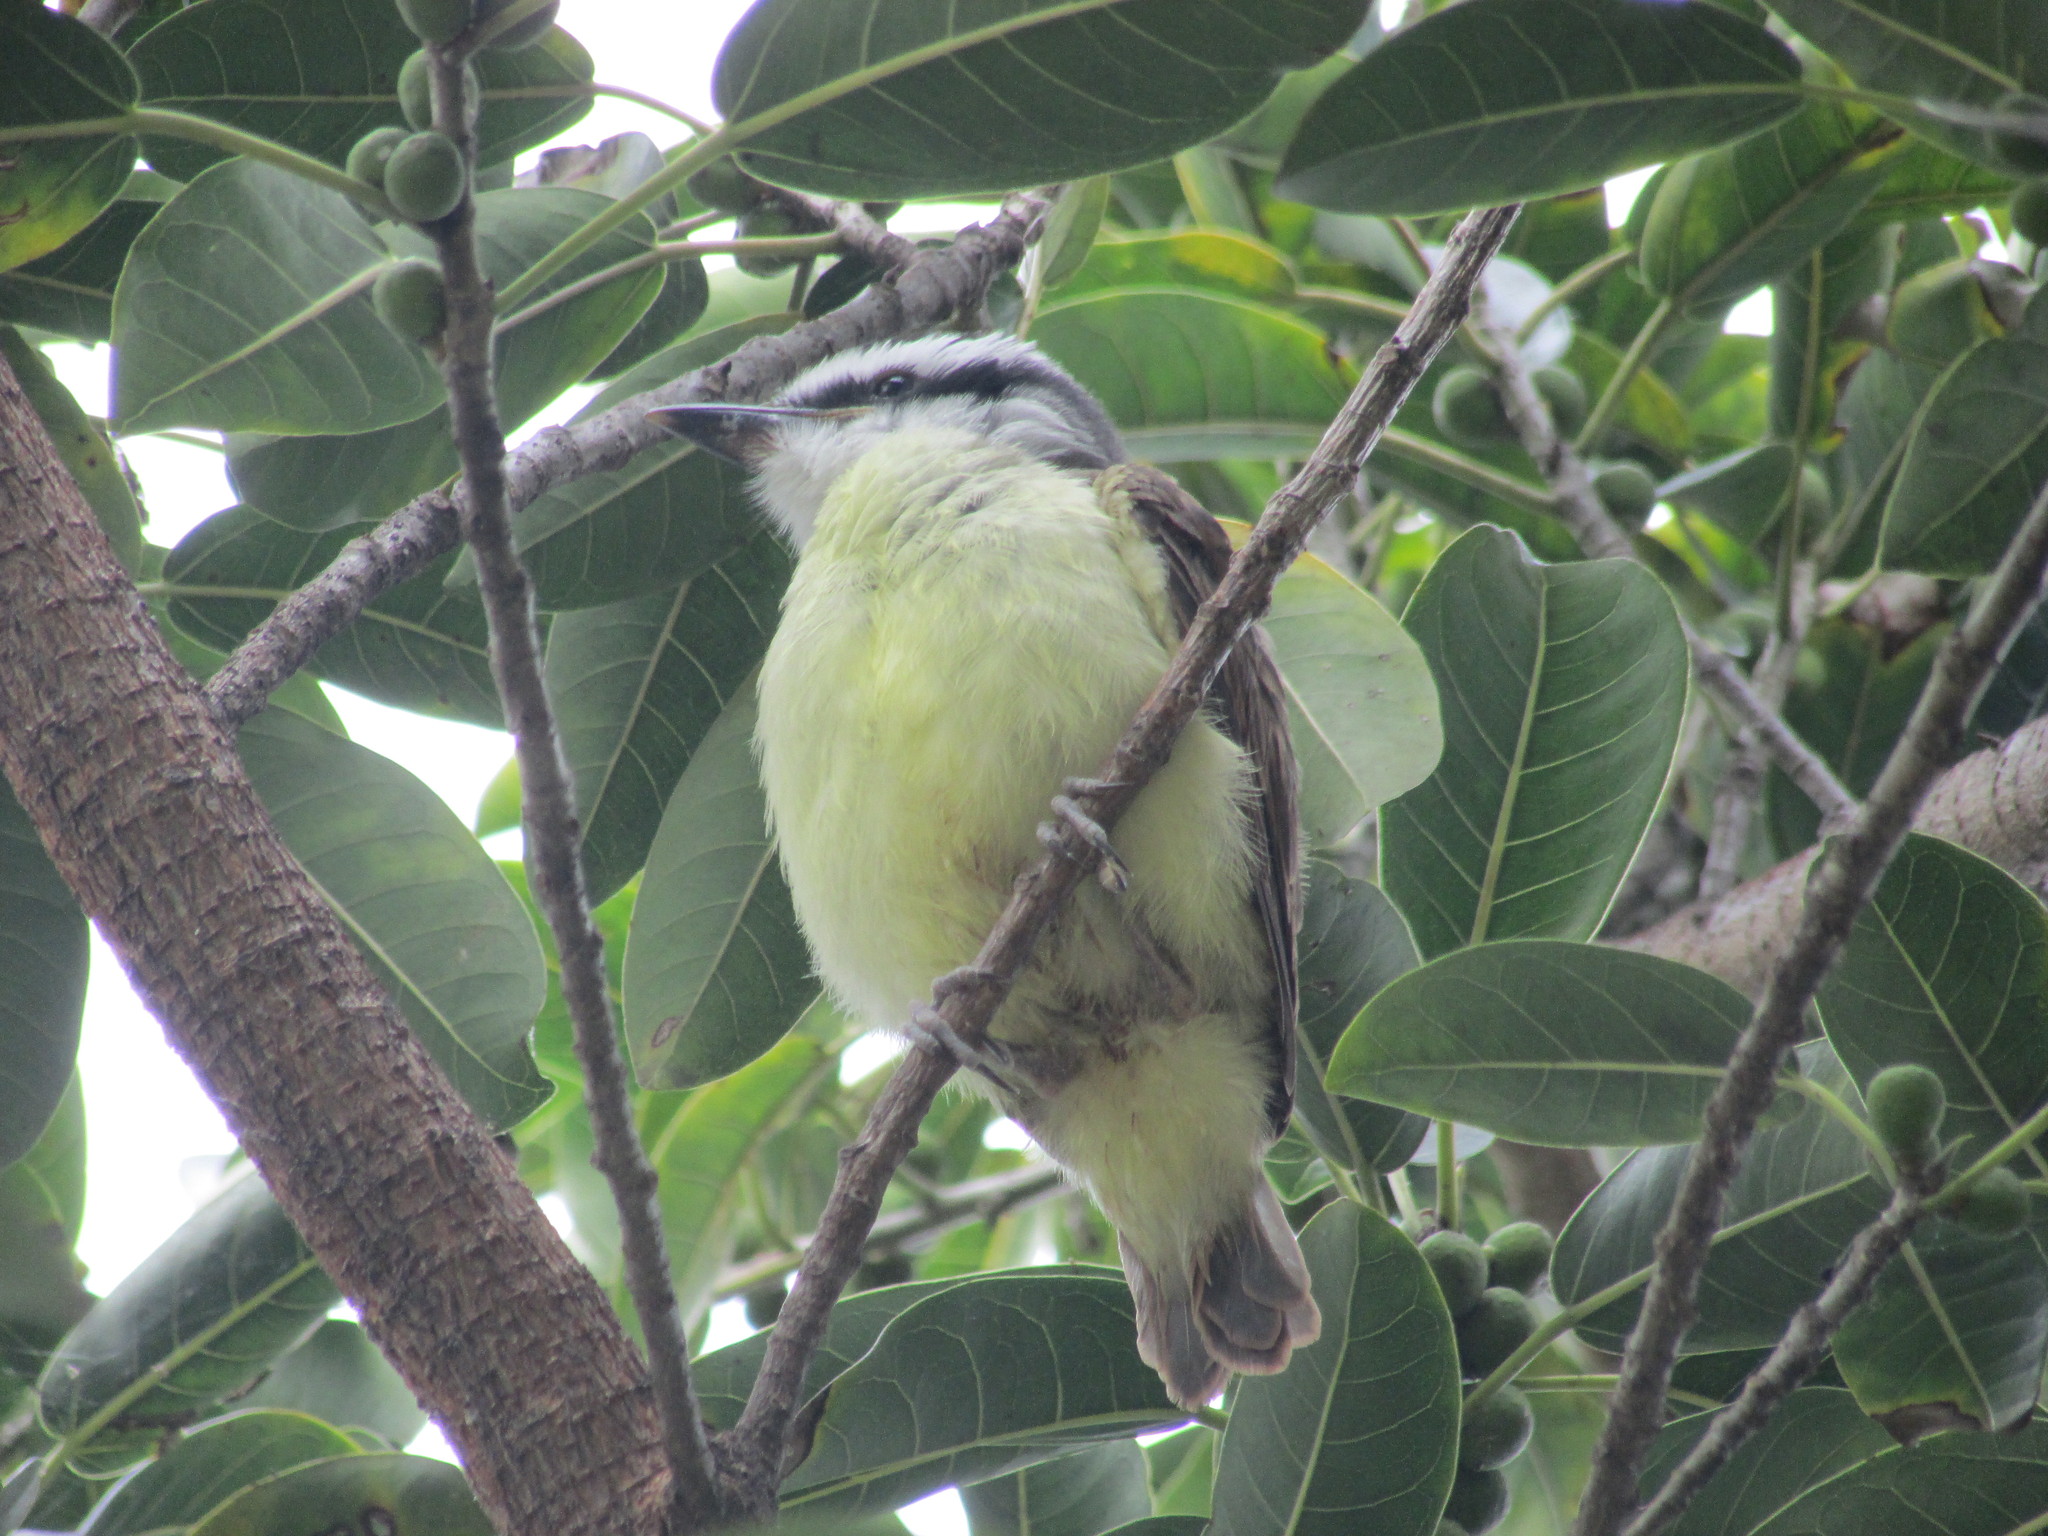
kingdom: Animalia
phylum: Chordata
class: Aves
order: Passeriformes
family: Tyrannidae
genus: Pitangus
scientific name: Pitangus sulphuratus
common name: Great kiskadee
